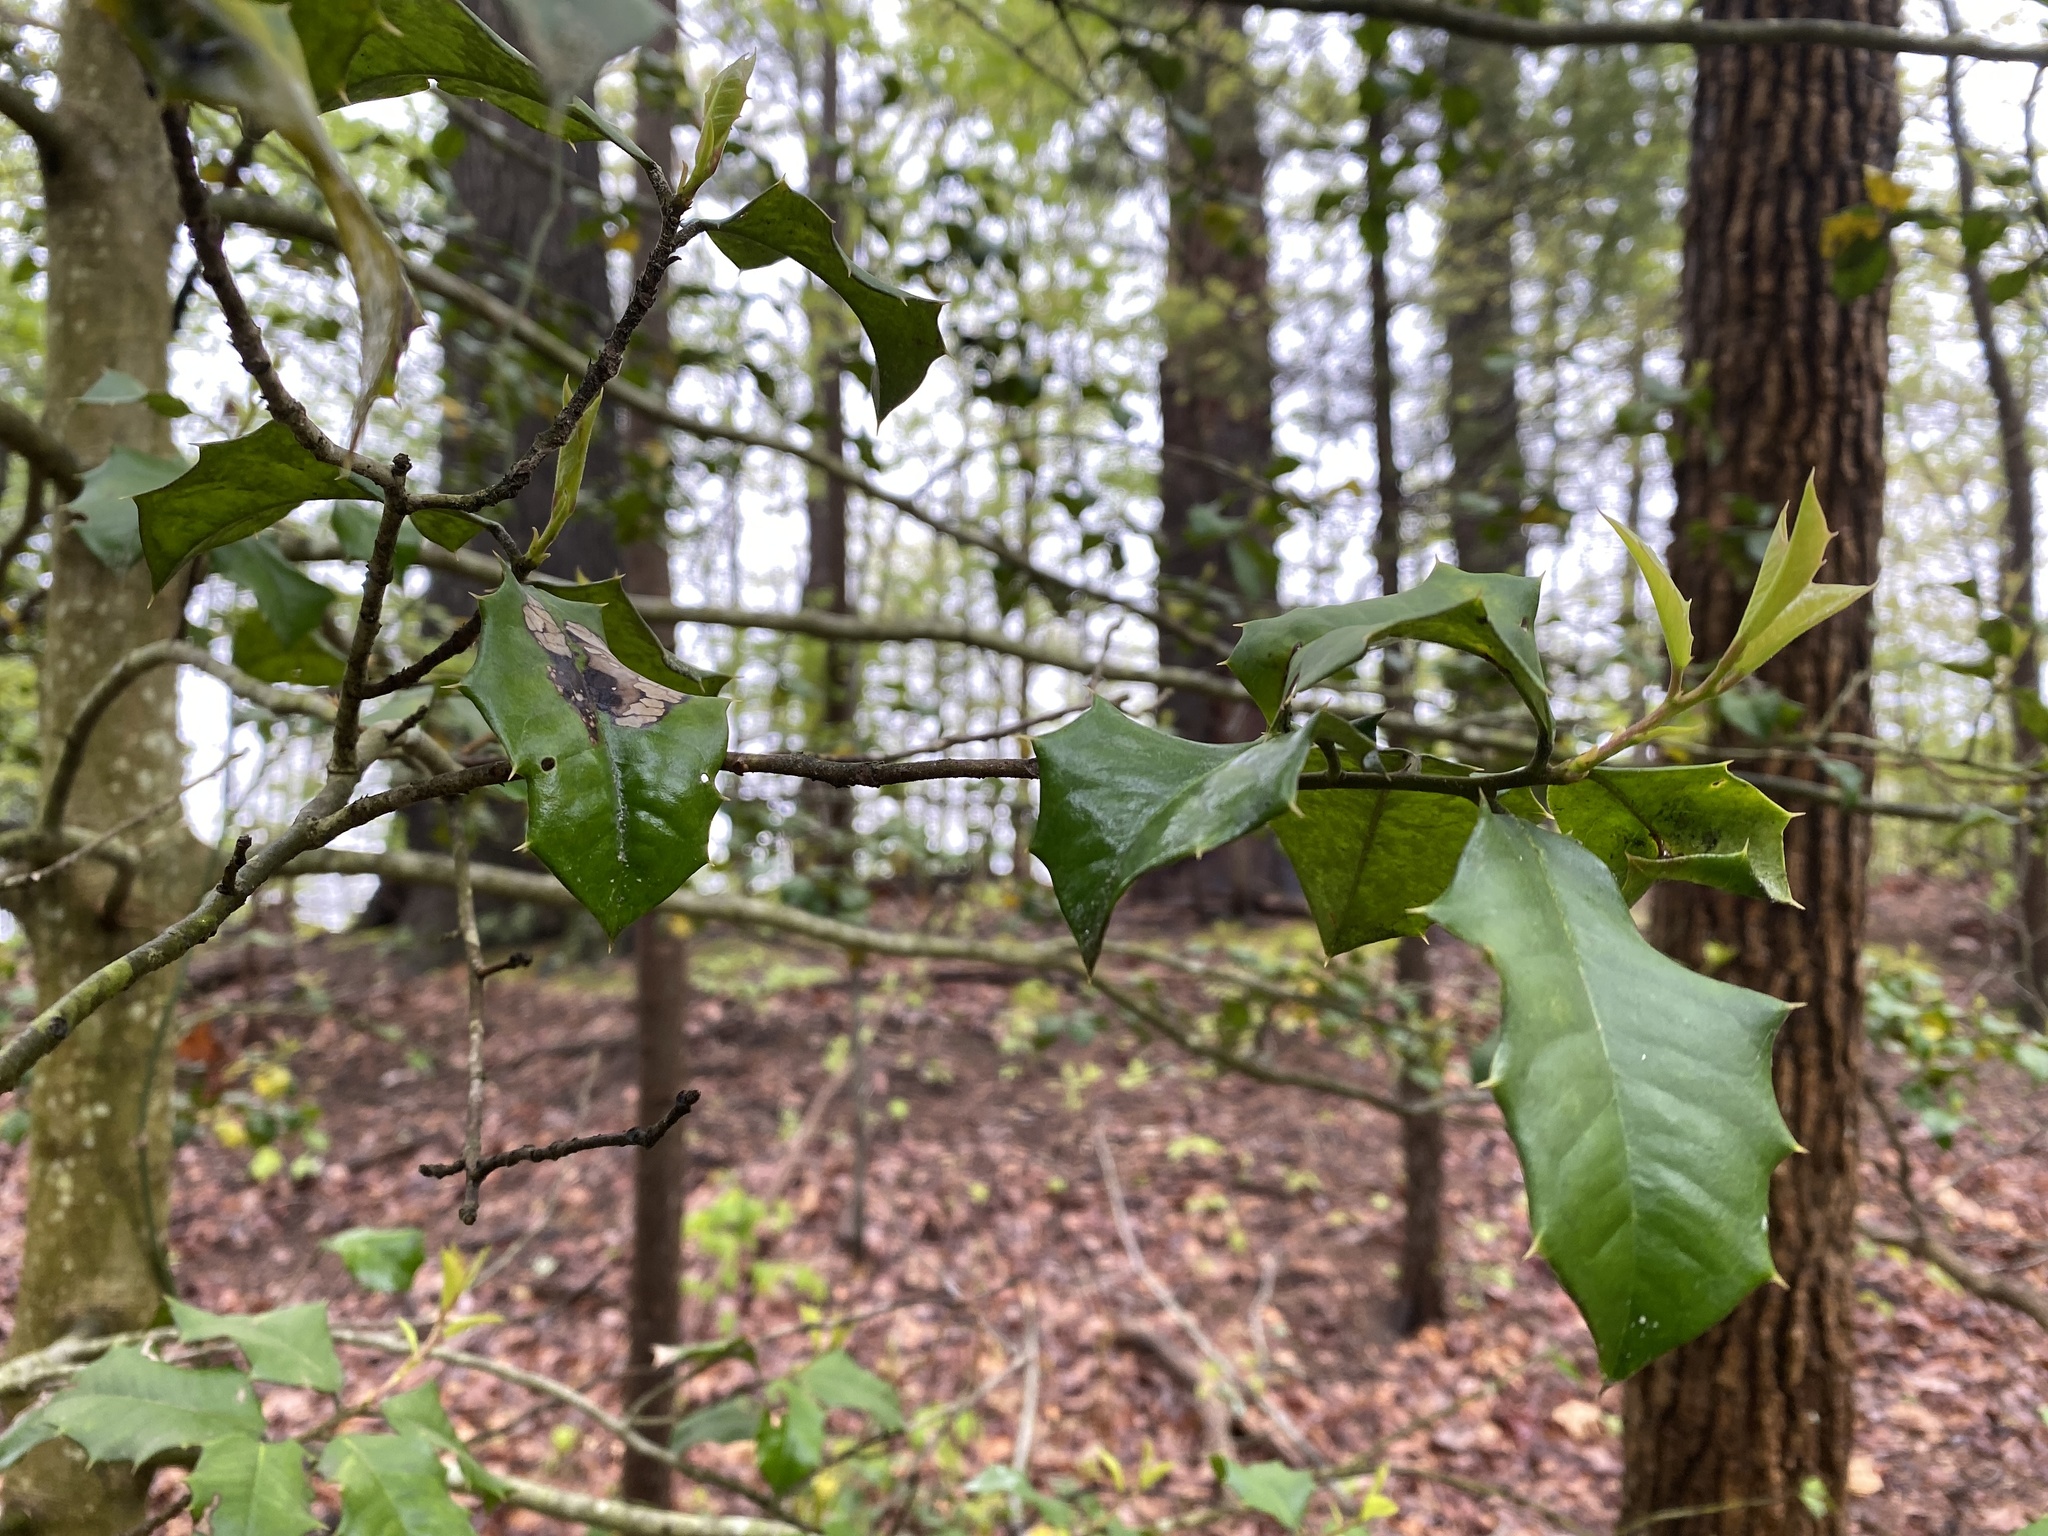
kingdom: Plantae
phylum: Tracheophyta
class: Magnoliopsida
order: Aquifoliales
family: Aquifoliaceae
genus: Ilex
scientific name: Ilex opaca
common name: American holly
